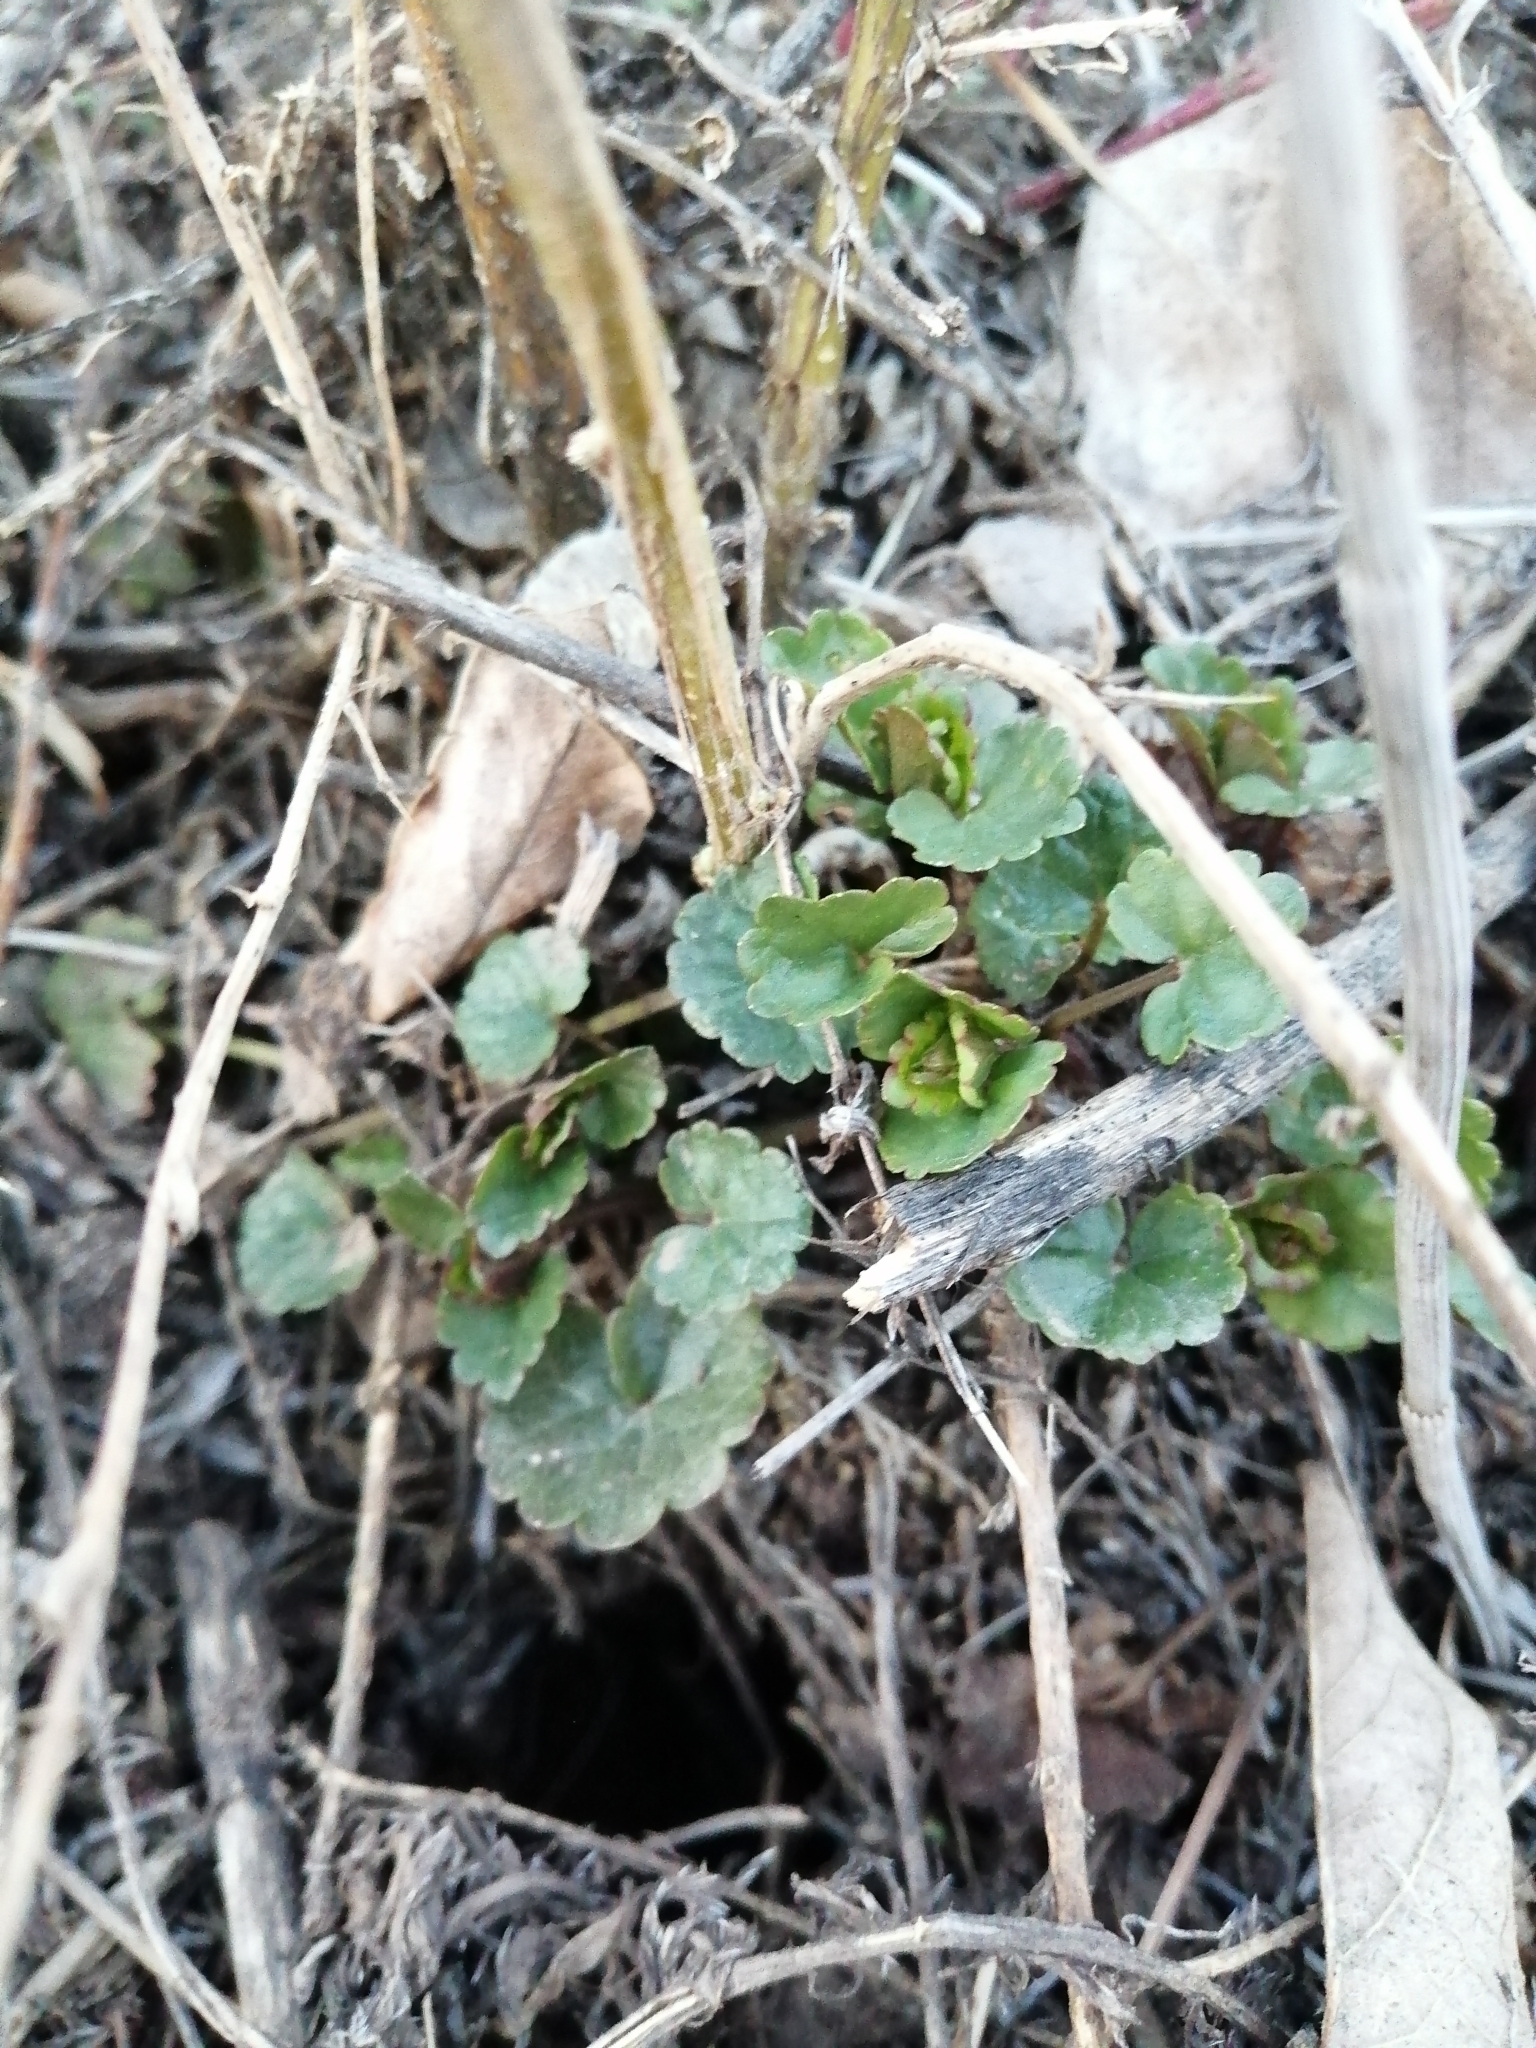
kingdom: Plantae
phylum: Tracheophyta
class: Magnoliopsida
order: Lamiales
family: Lamiaceae
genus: Glechoma
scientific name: Glechoma hederacea
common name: Ground ivy
